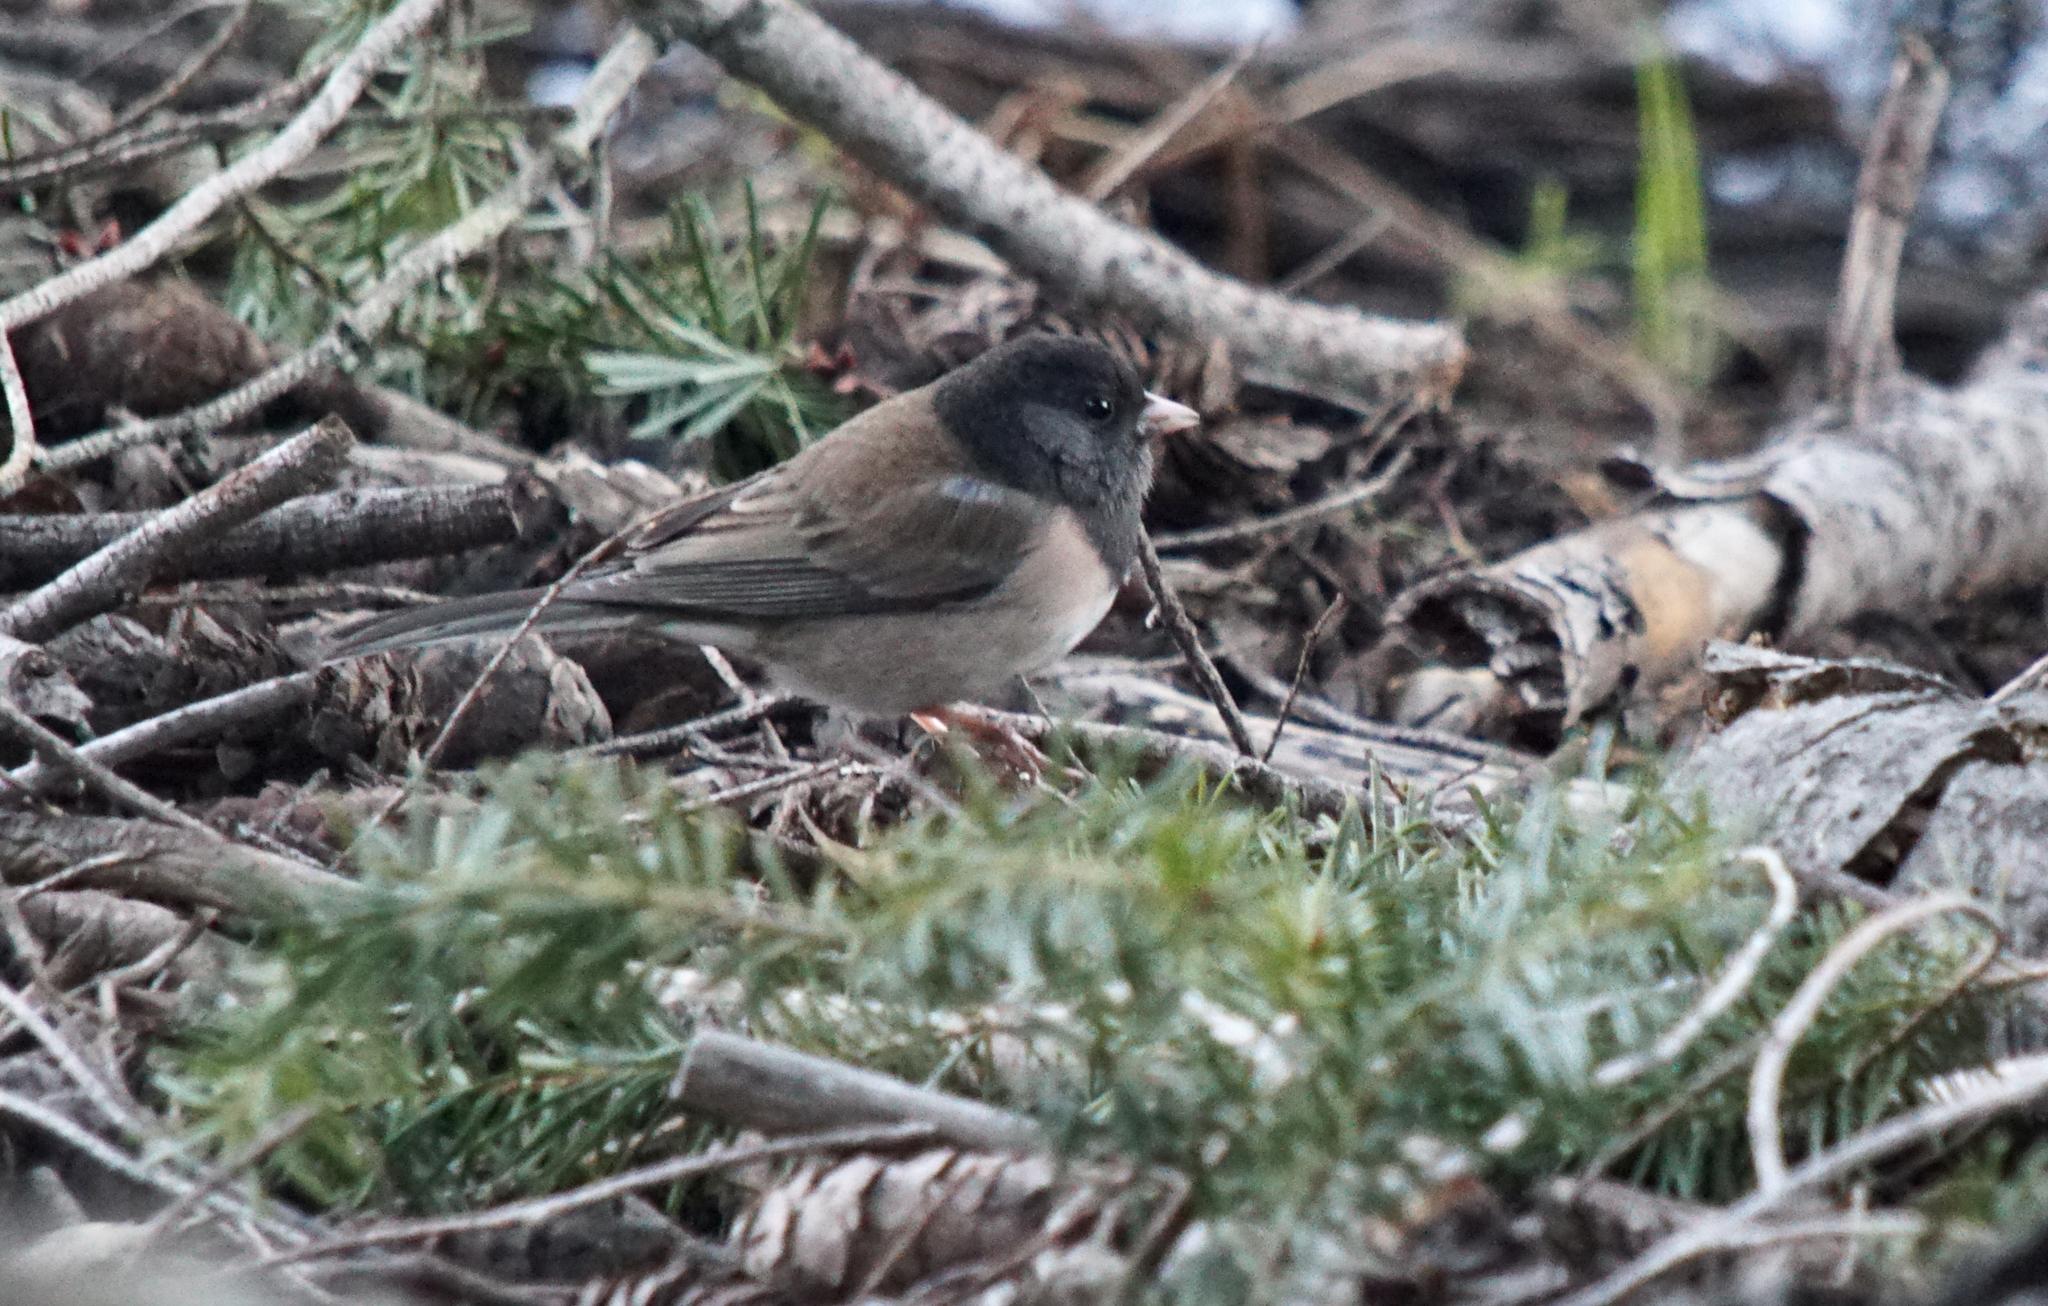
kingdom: Animalia
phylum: Chordata
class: Aves
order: Passeriformes
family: Passerellidae
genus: Junco
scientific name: Junco hyemalis
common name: Dark-eyed junco
